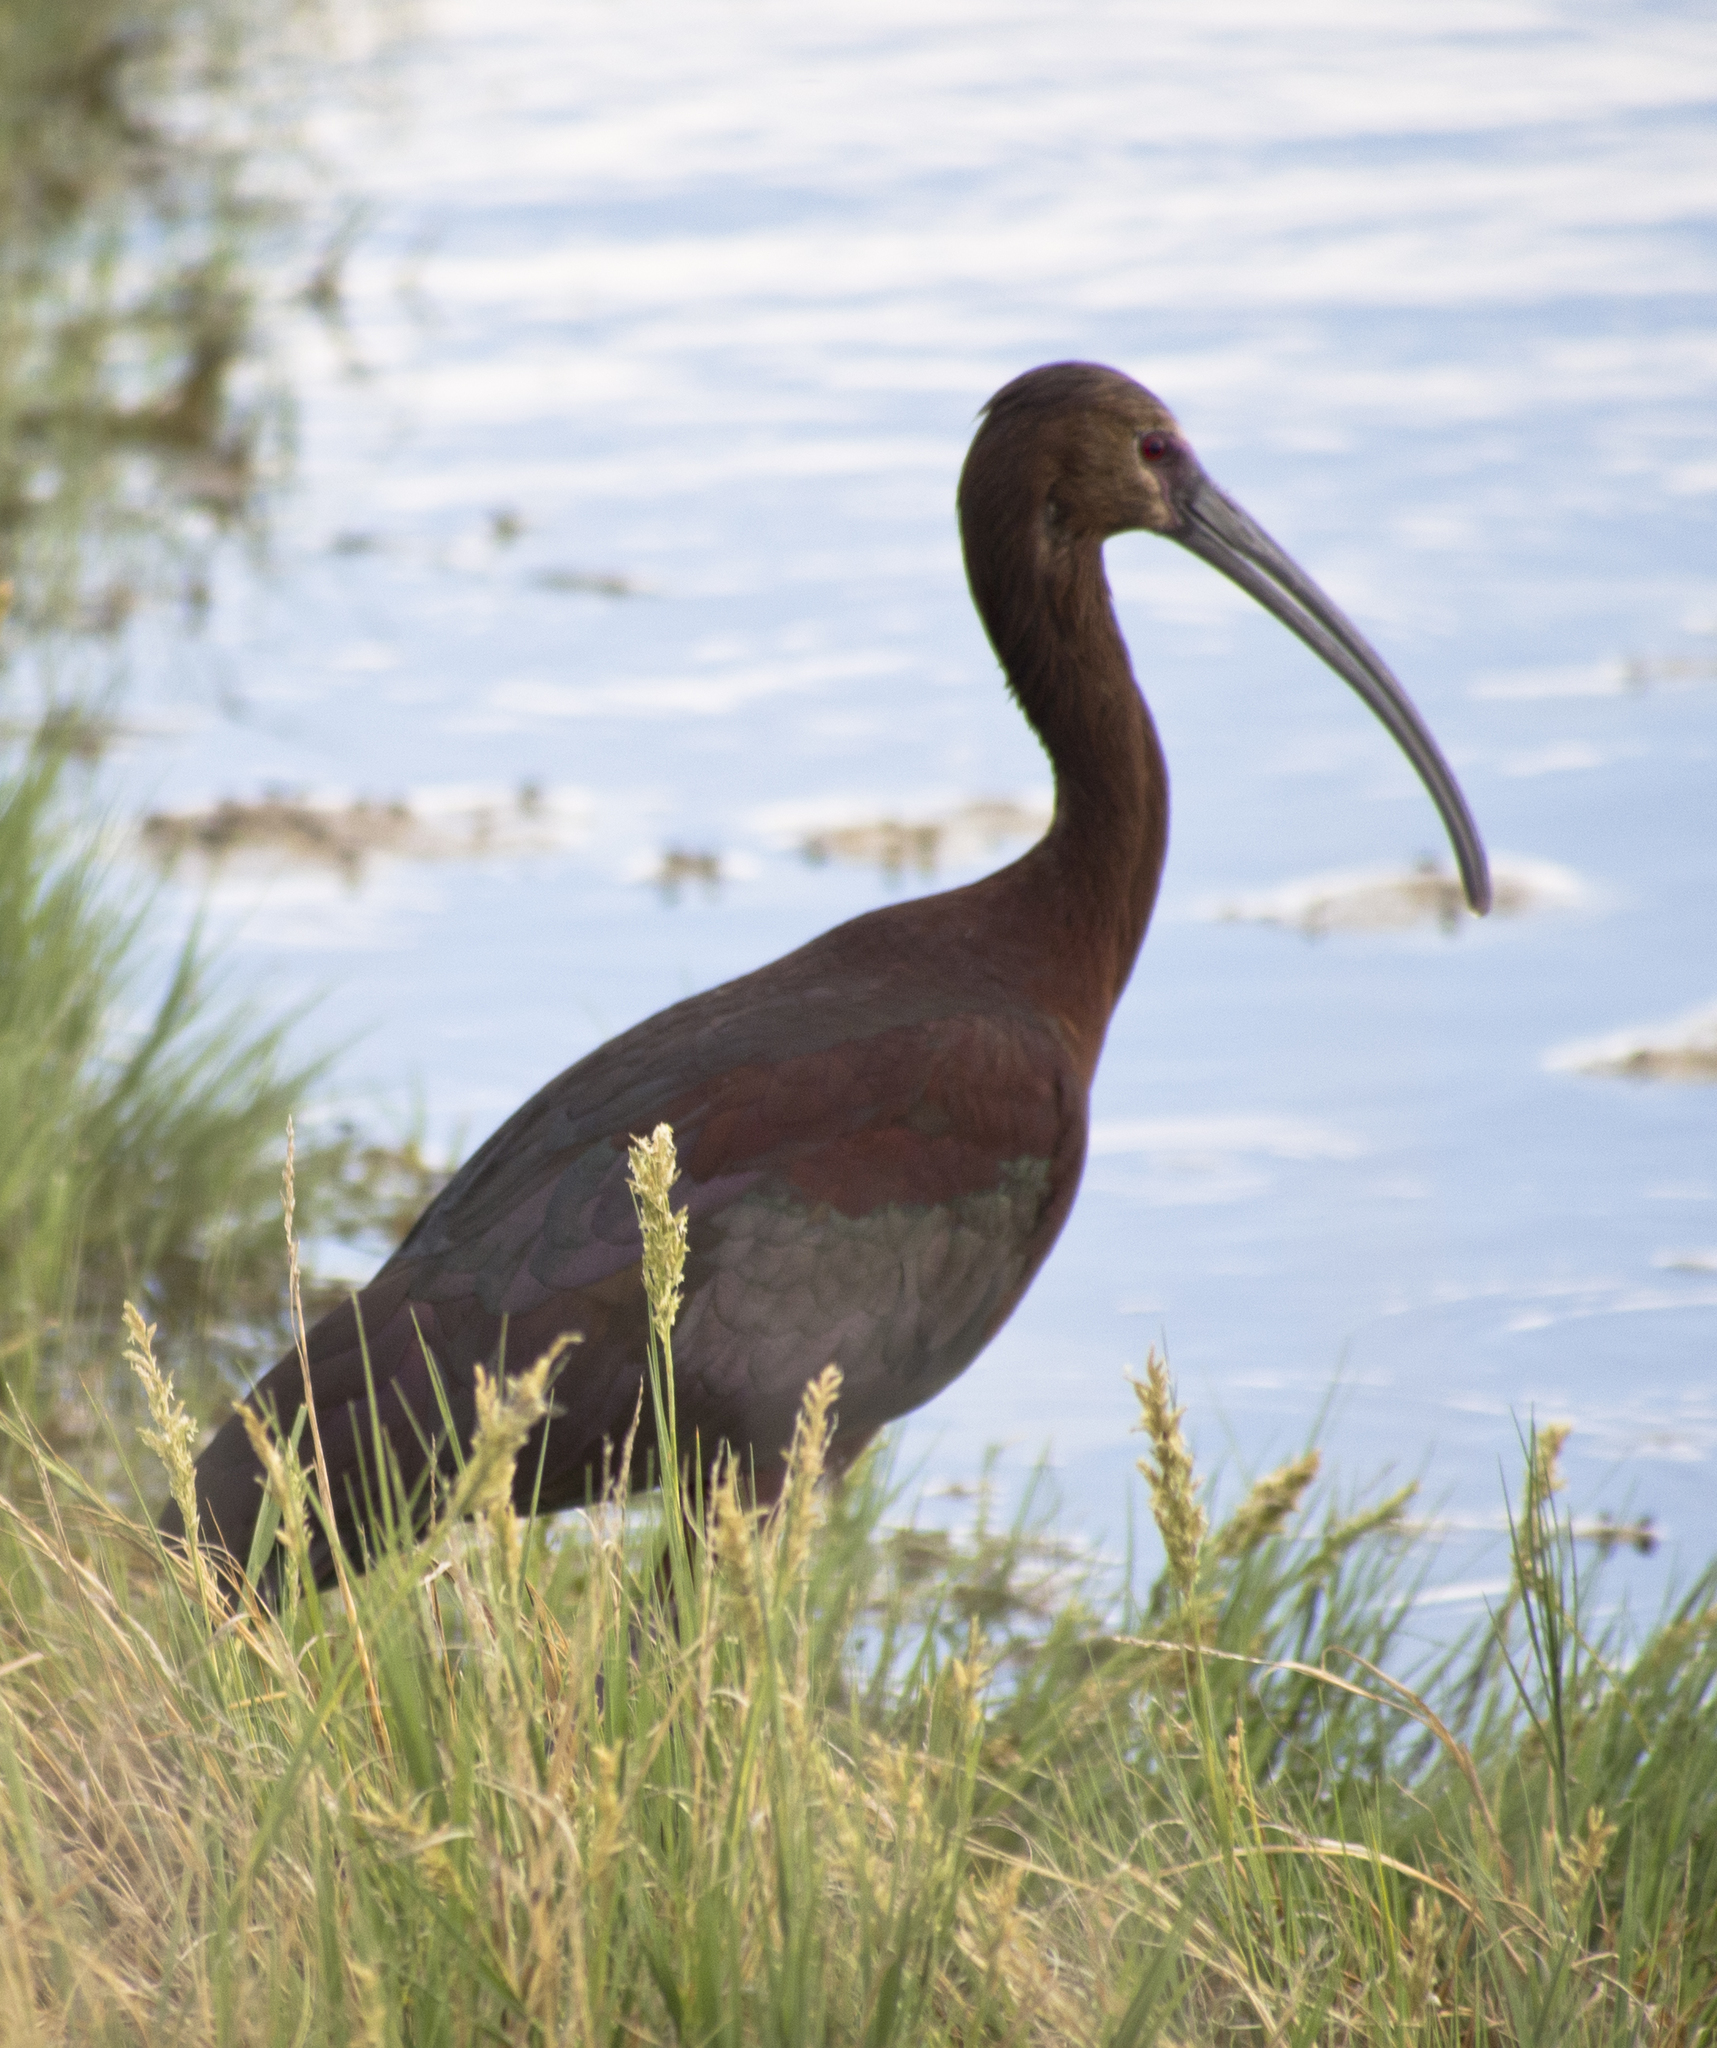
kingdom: Animalia
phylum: Chordata
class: Aves
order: Pelecaniformes
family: Threskiornithidae
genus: Plegadis
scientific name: Plegadis chihi
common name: White-faced ibis
